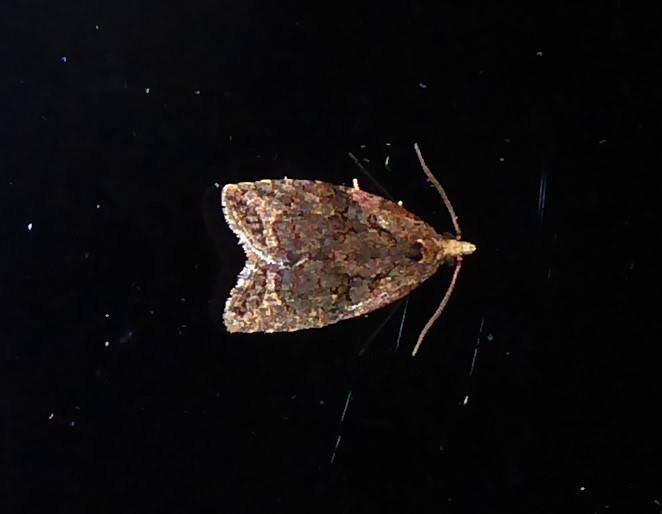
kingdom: Animalia
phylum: Arthropoda
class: Insecta
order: Lepidoptera
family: Tortricidae
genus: Capua
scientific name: Capua intractana
